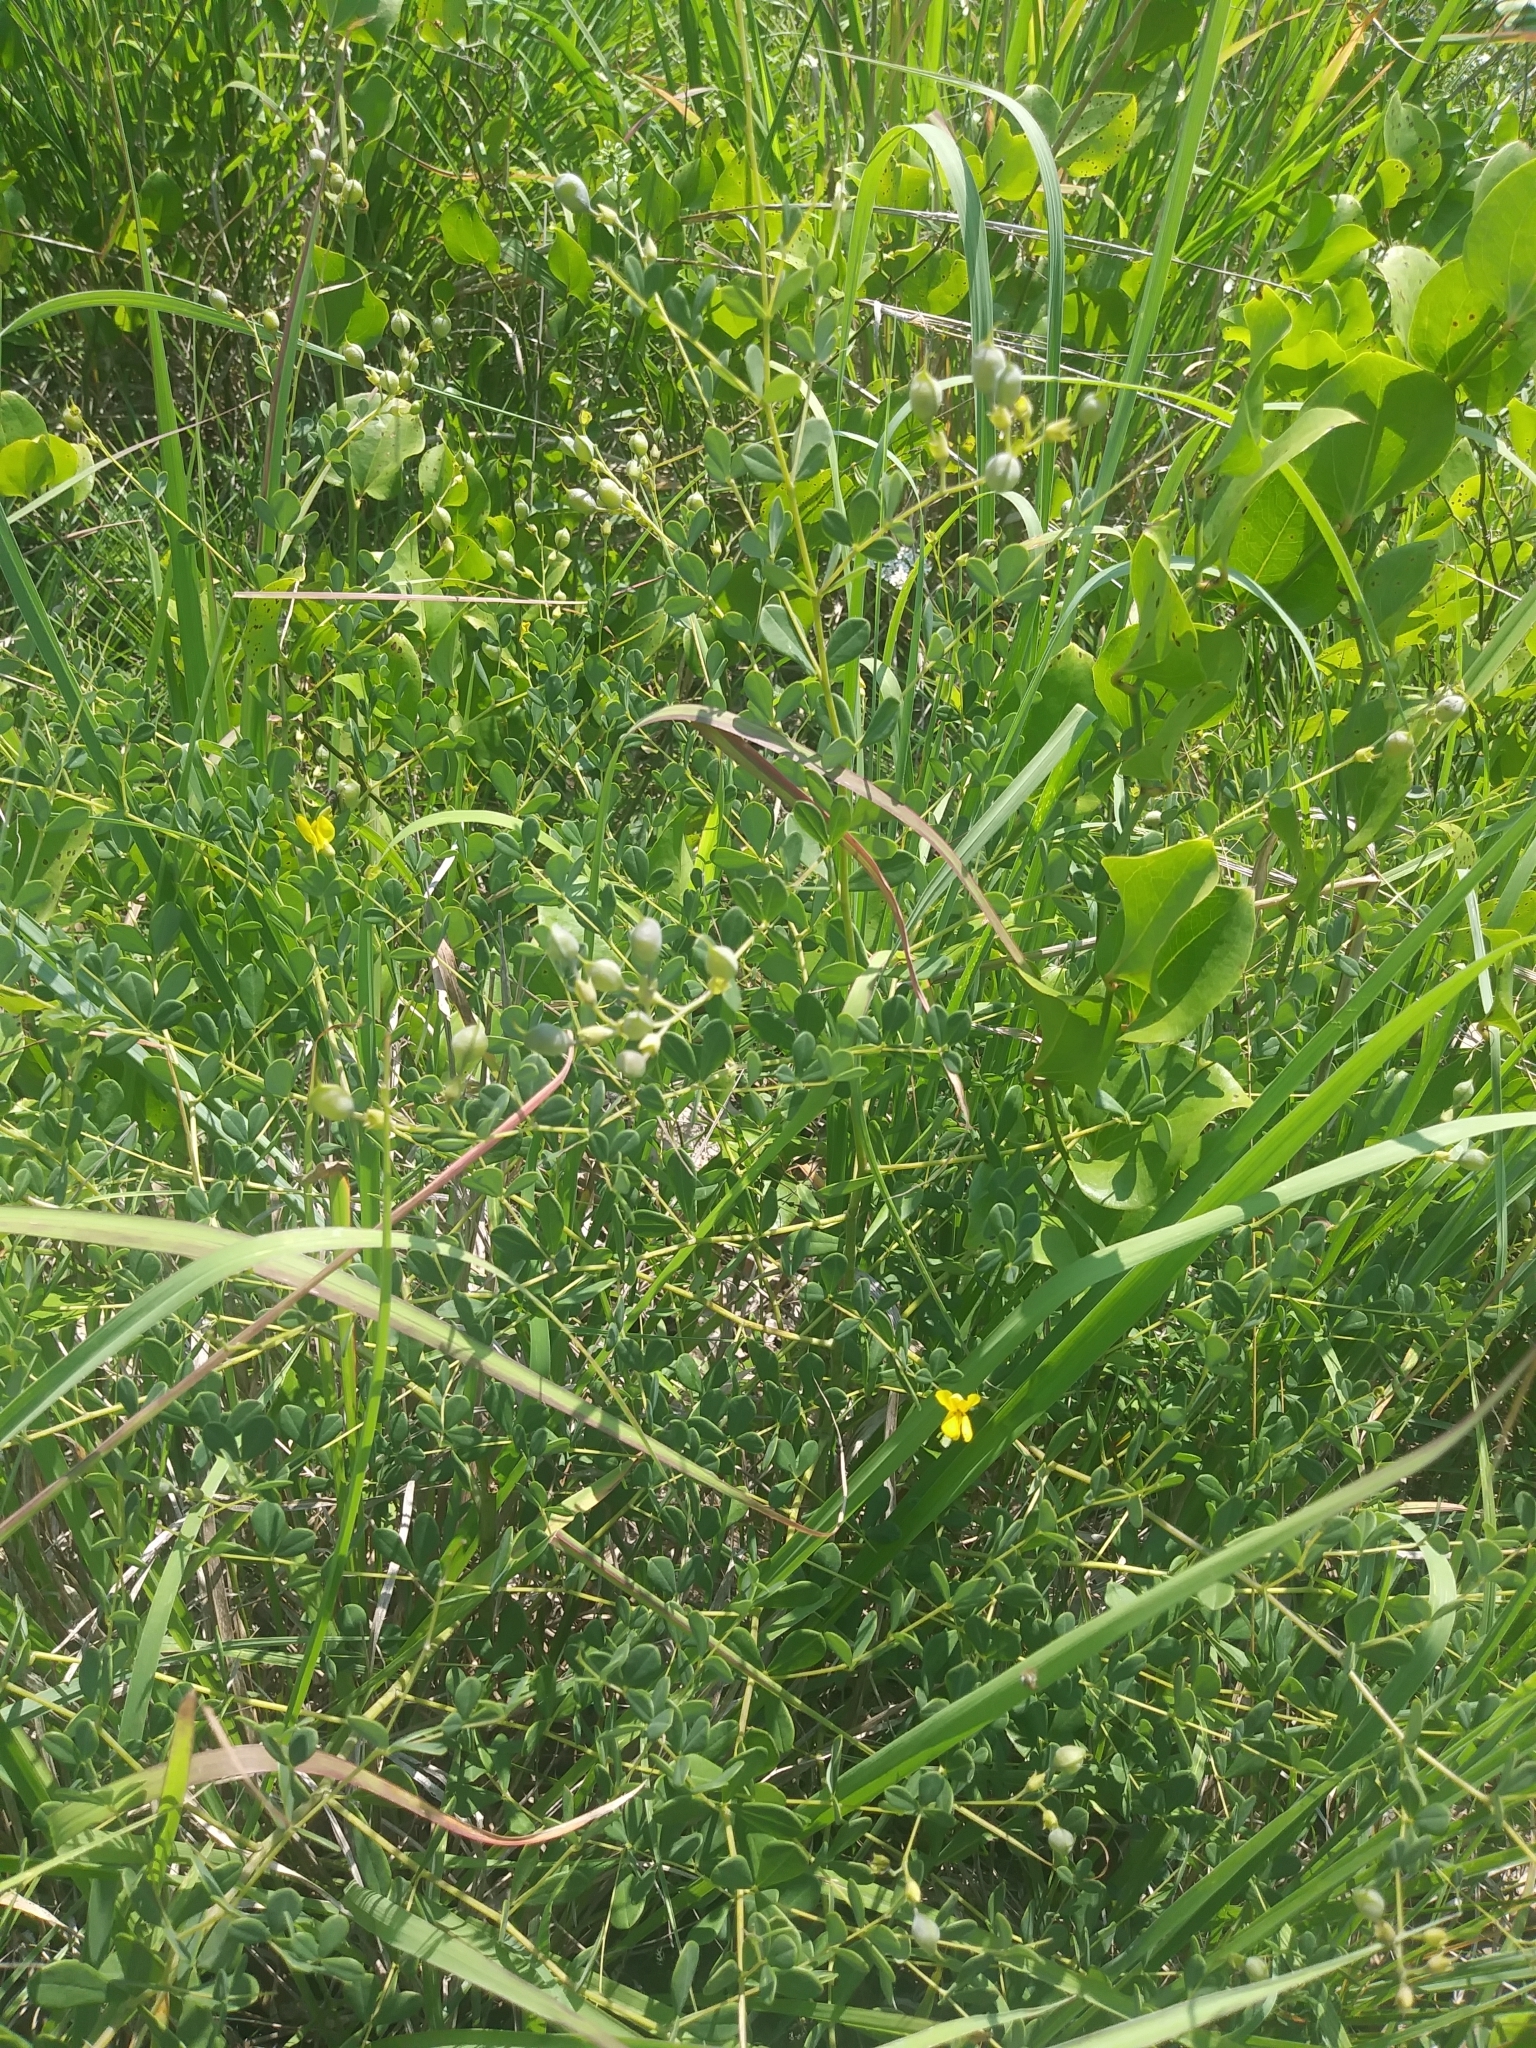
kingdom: Plantae
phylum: Tracheophyta
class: Magnoliopsida
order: Fabales
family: Fabaceae
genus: Baptisia
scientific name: Baptisia tinctoria
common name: Wild indigo
